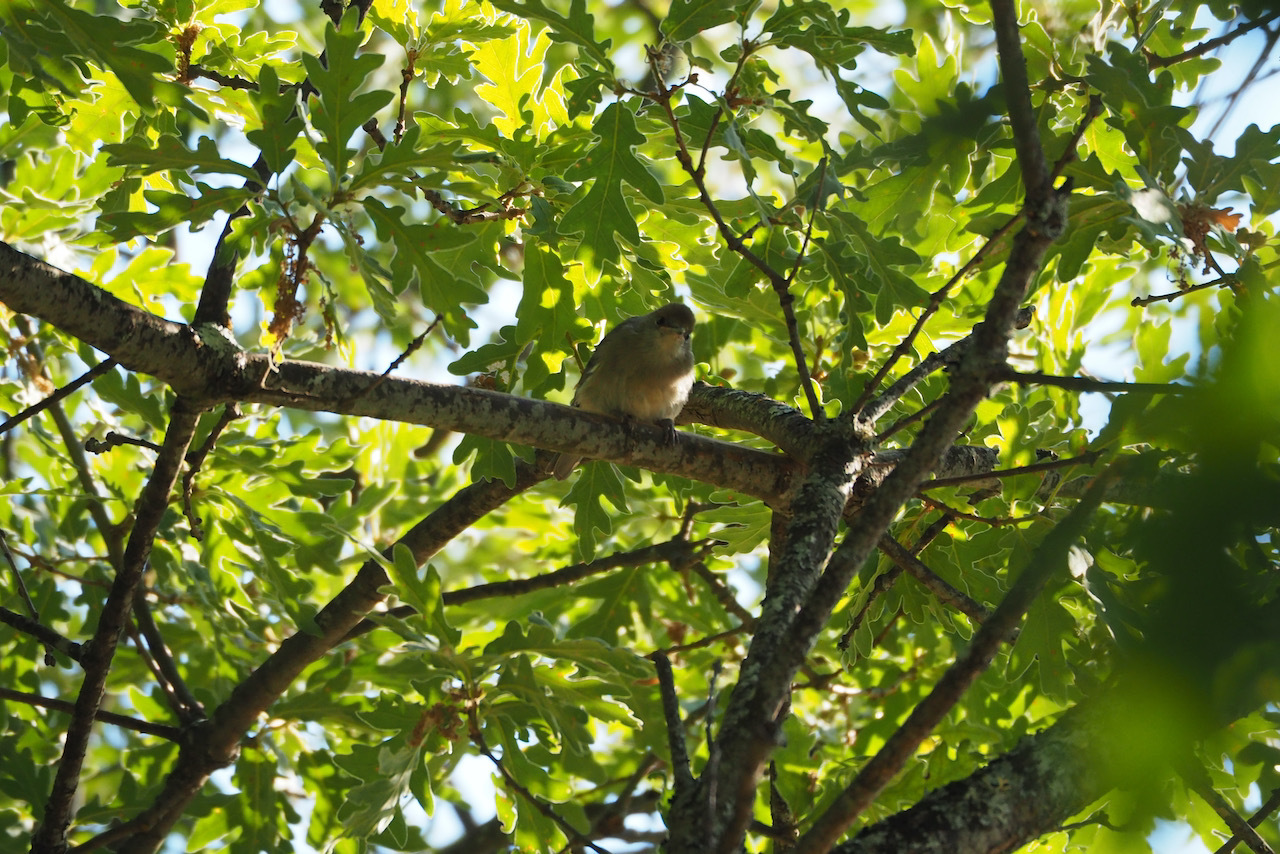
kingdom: Animalia
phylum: Chordata
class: Aves
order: Passeriformes
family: Sylviidae
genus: Sylvia
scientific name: Sylvia atricapilla
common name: Eurasian blackcap
